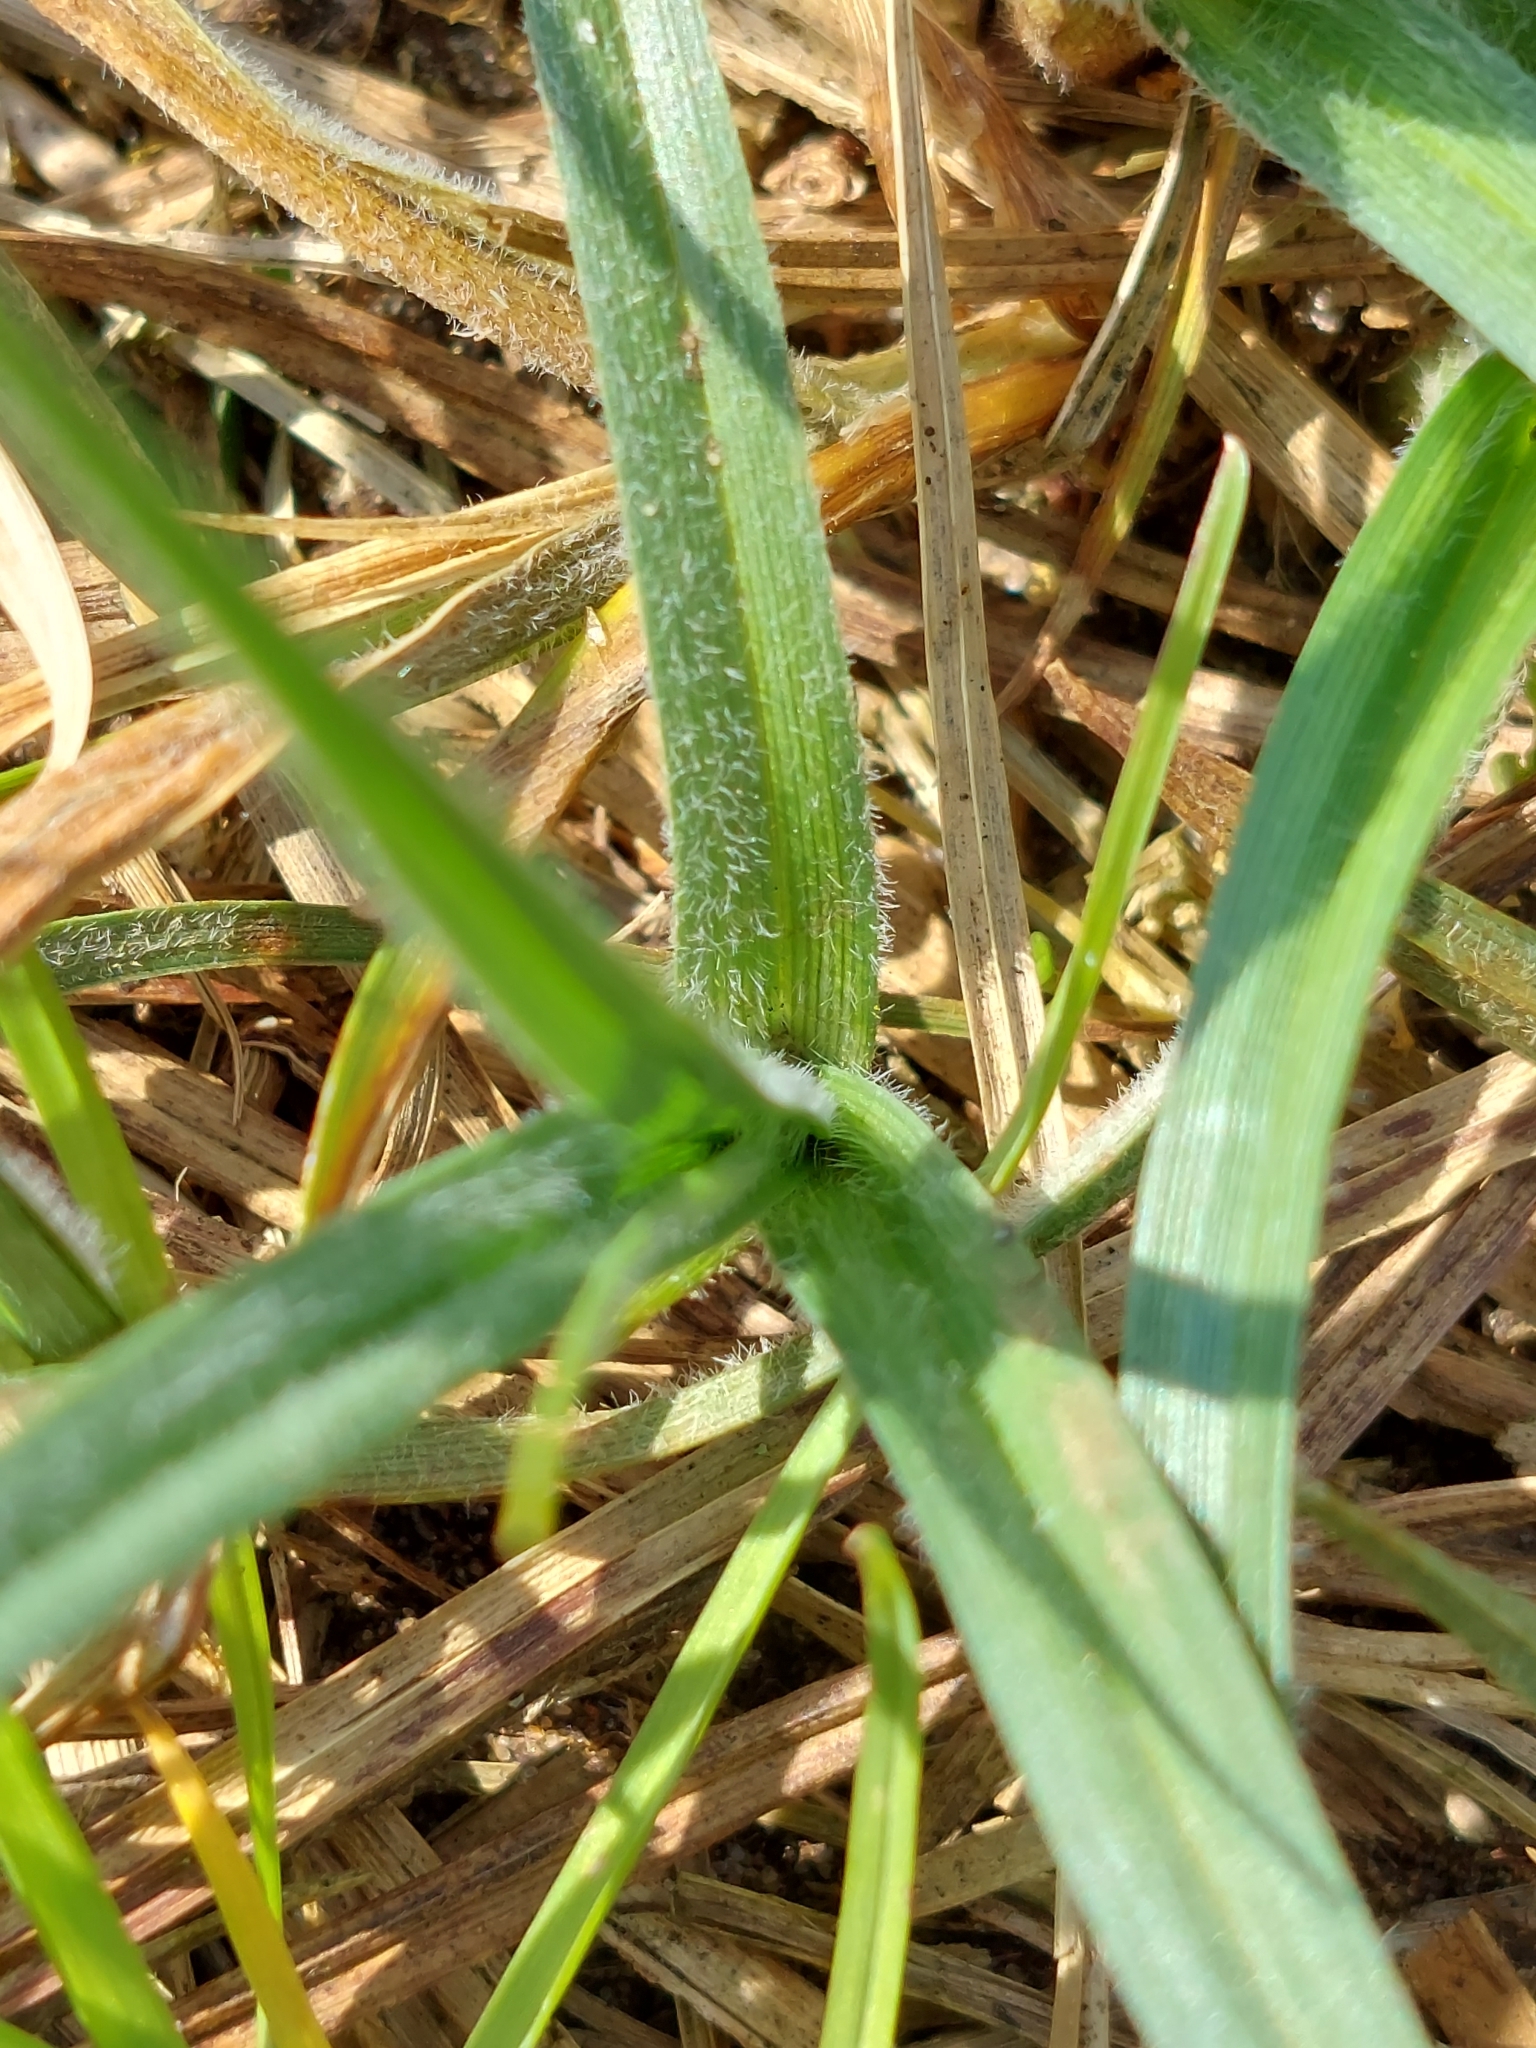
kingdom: Plantae
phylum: Tracheophyta
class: Liliopsida
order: Poales
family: Cyperaceae
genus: Carex
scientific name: Carex hirta
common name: Hairy sedge
